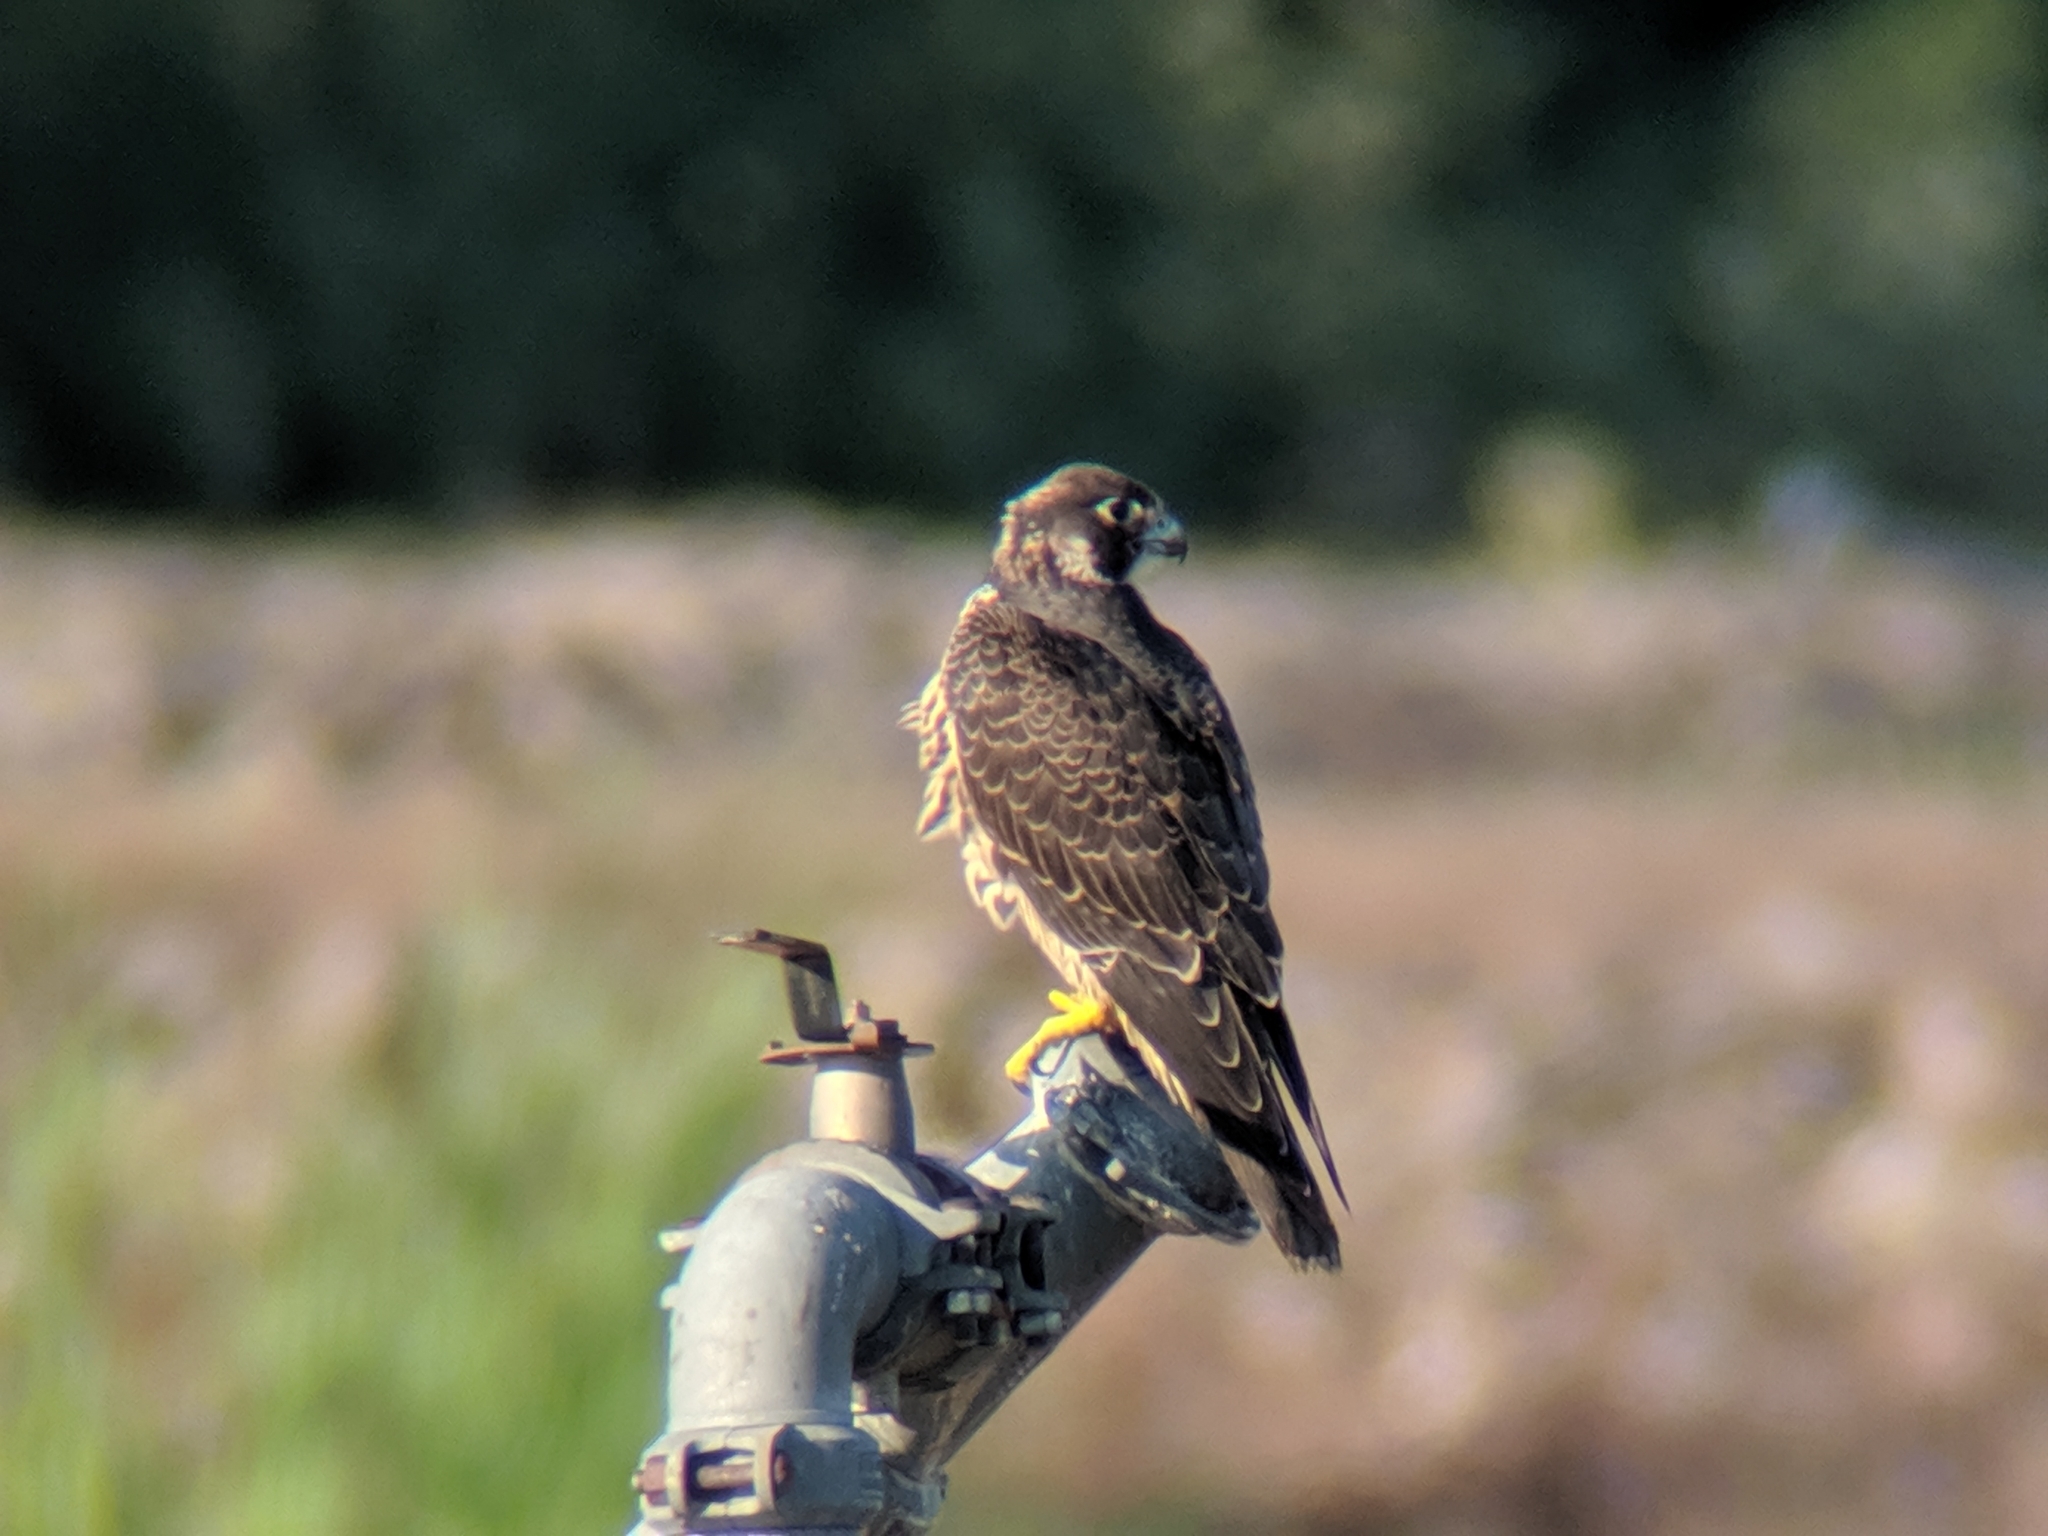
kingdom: Animalia
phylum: Chordata
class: Aves
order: Falconiformes
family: Falconidae
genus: Falco
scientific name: Falco peregrinus
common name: Peregrine falcon
